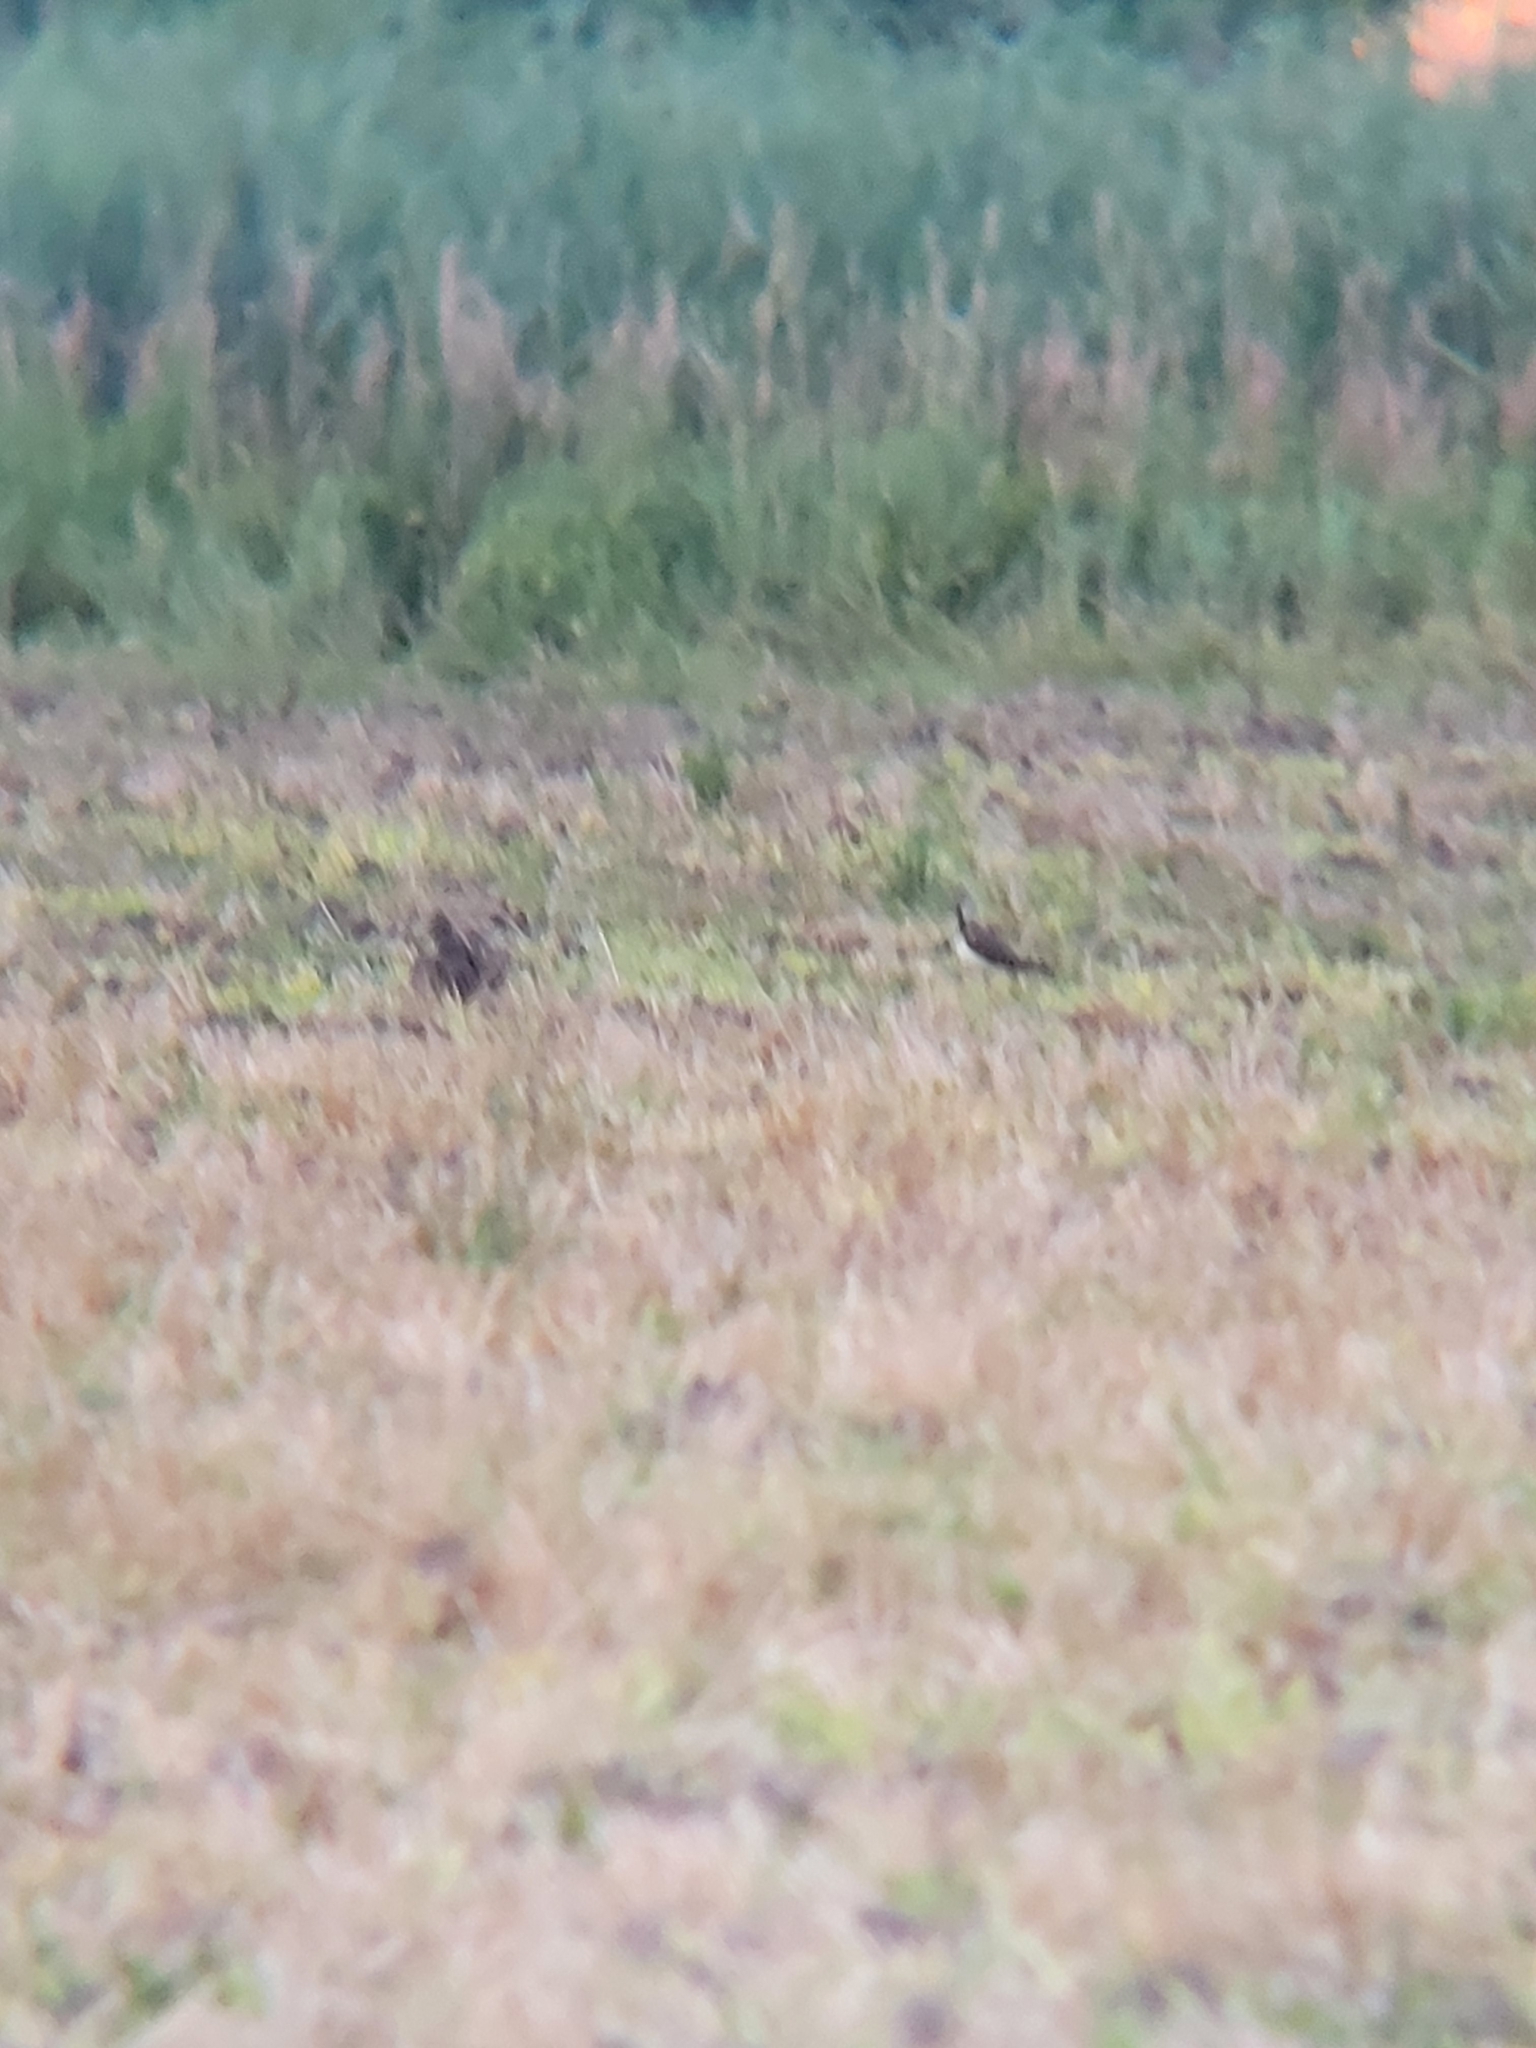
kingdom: Animalia
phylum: Chordata
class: Aves
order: Charadriiformes
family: Charadriidae
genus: Vanellus
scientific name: Vanellus vanellus
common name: Northern lapwing
